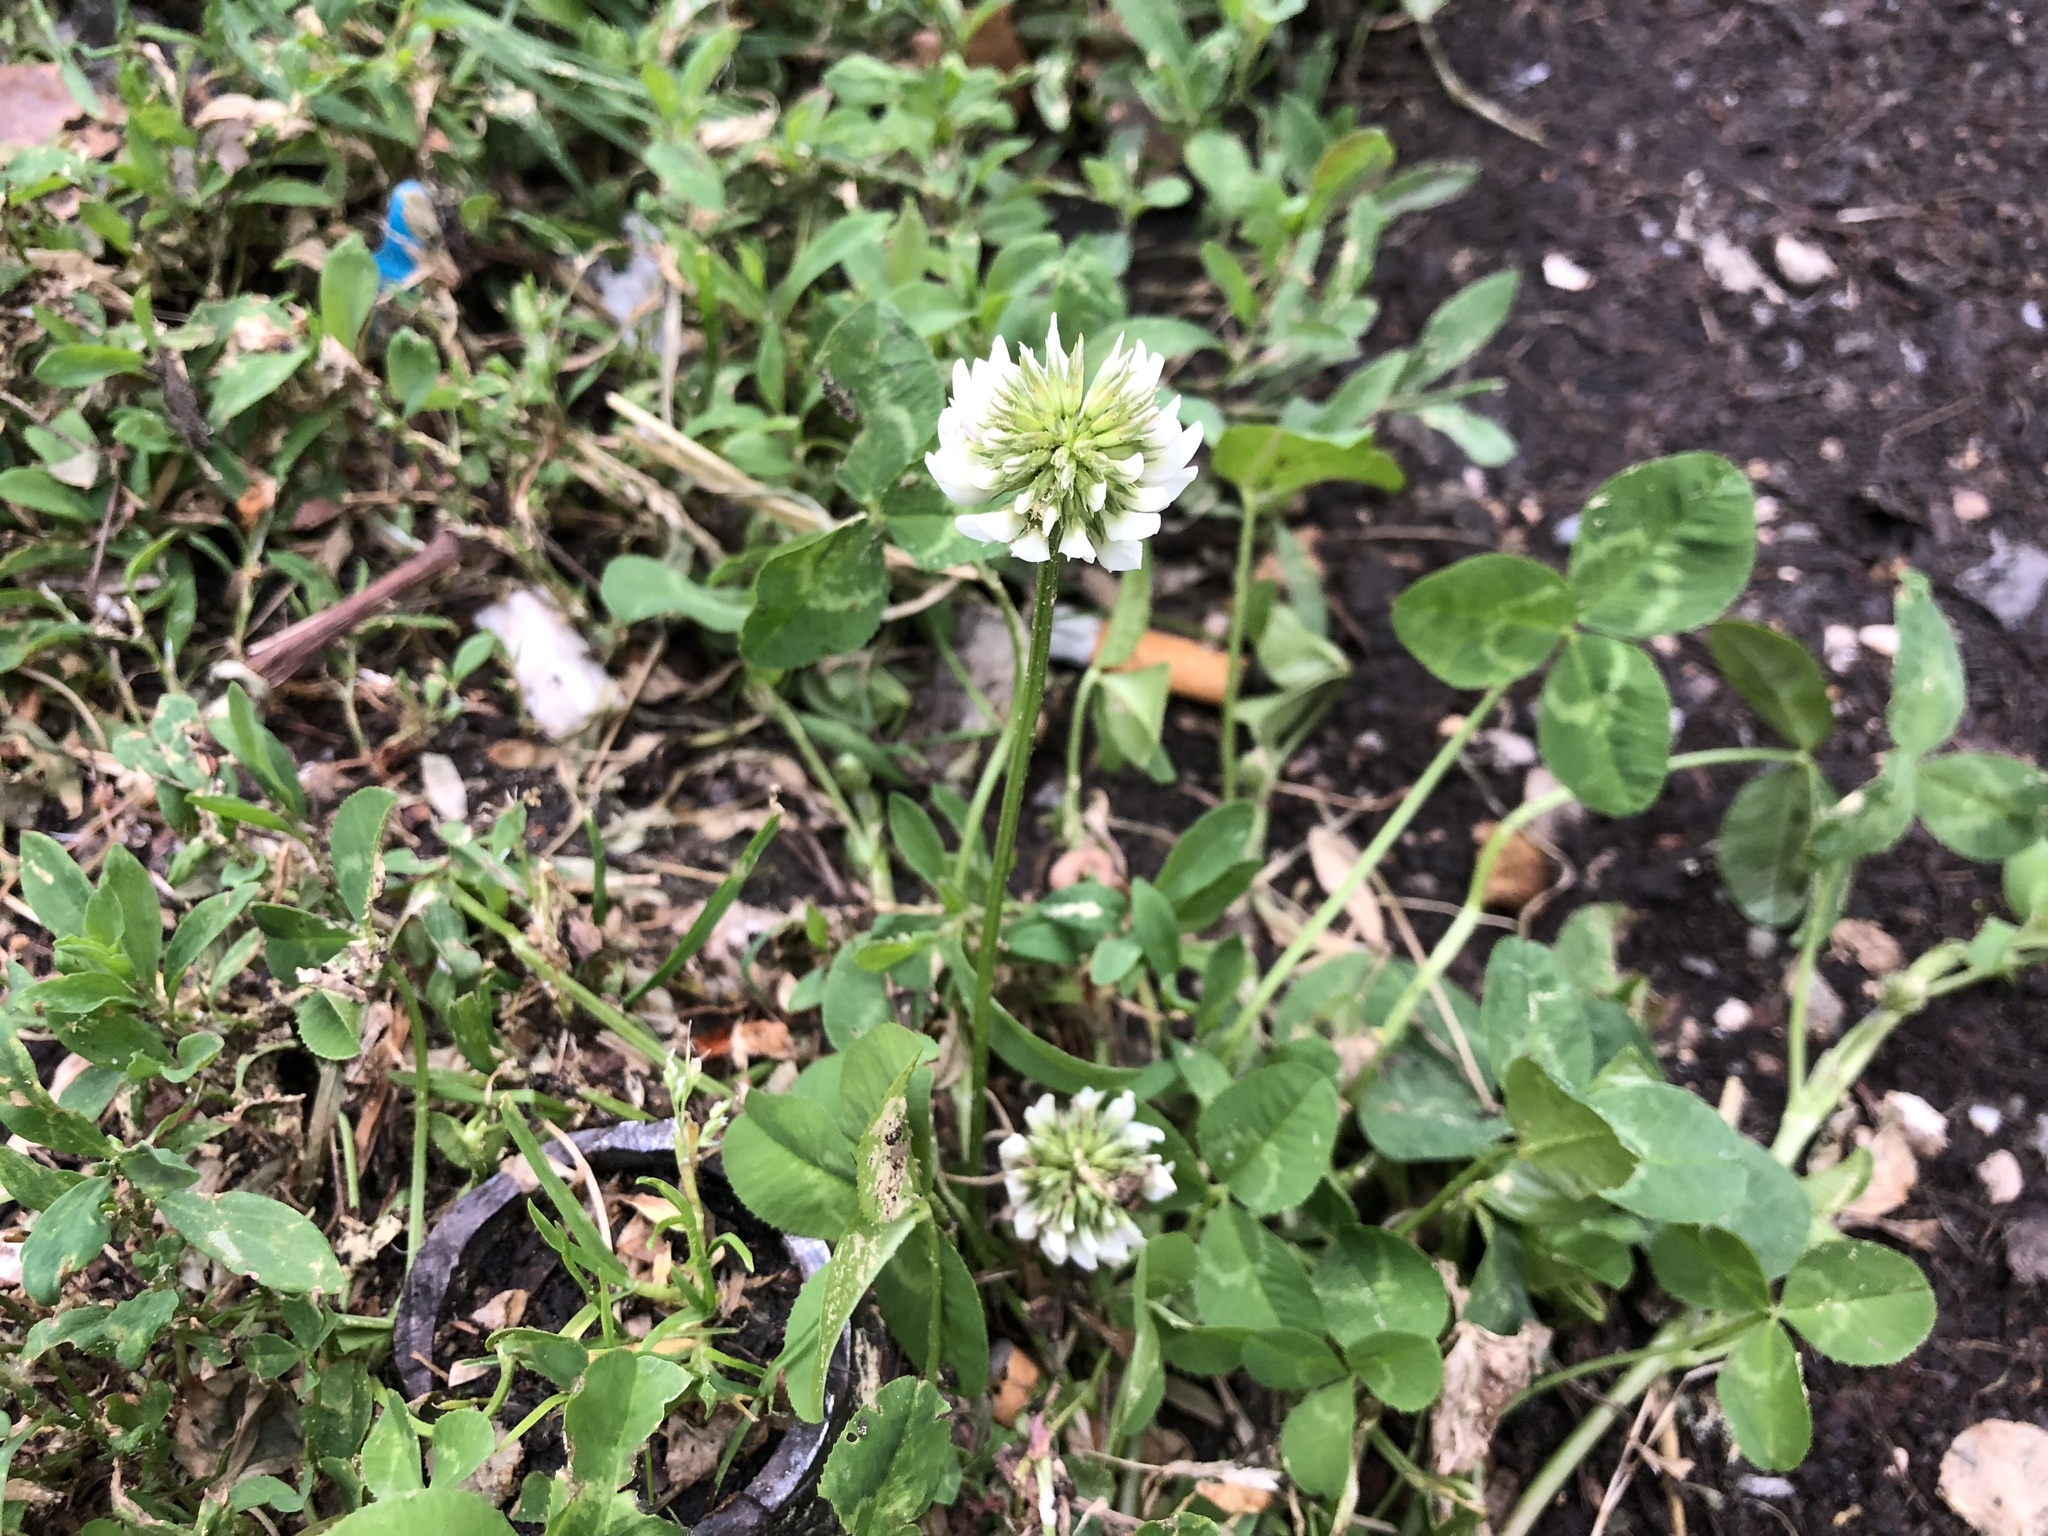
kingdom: Plantae
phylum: Tracheophyta
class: Magnoliopsida
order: Fabales
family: Fabaceae
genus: Trifolium
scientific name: Trifolium repens
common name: White clover
